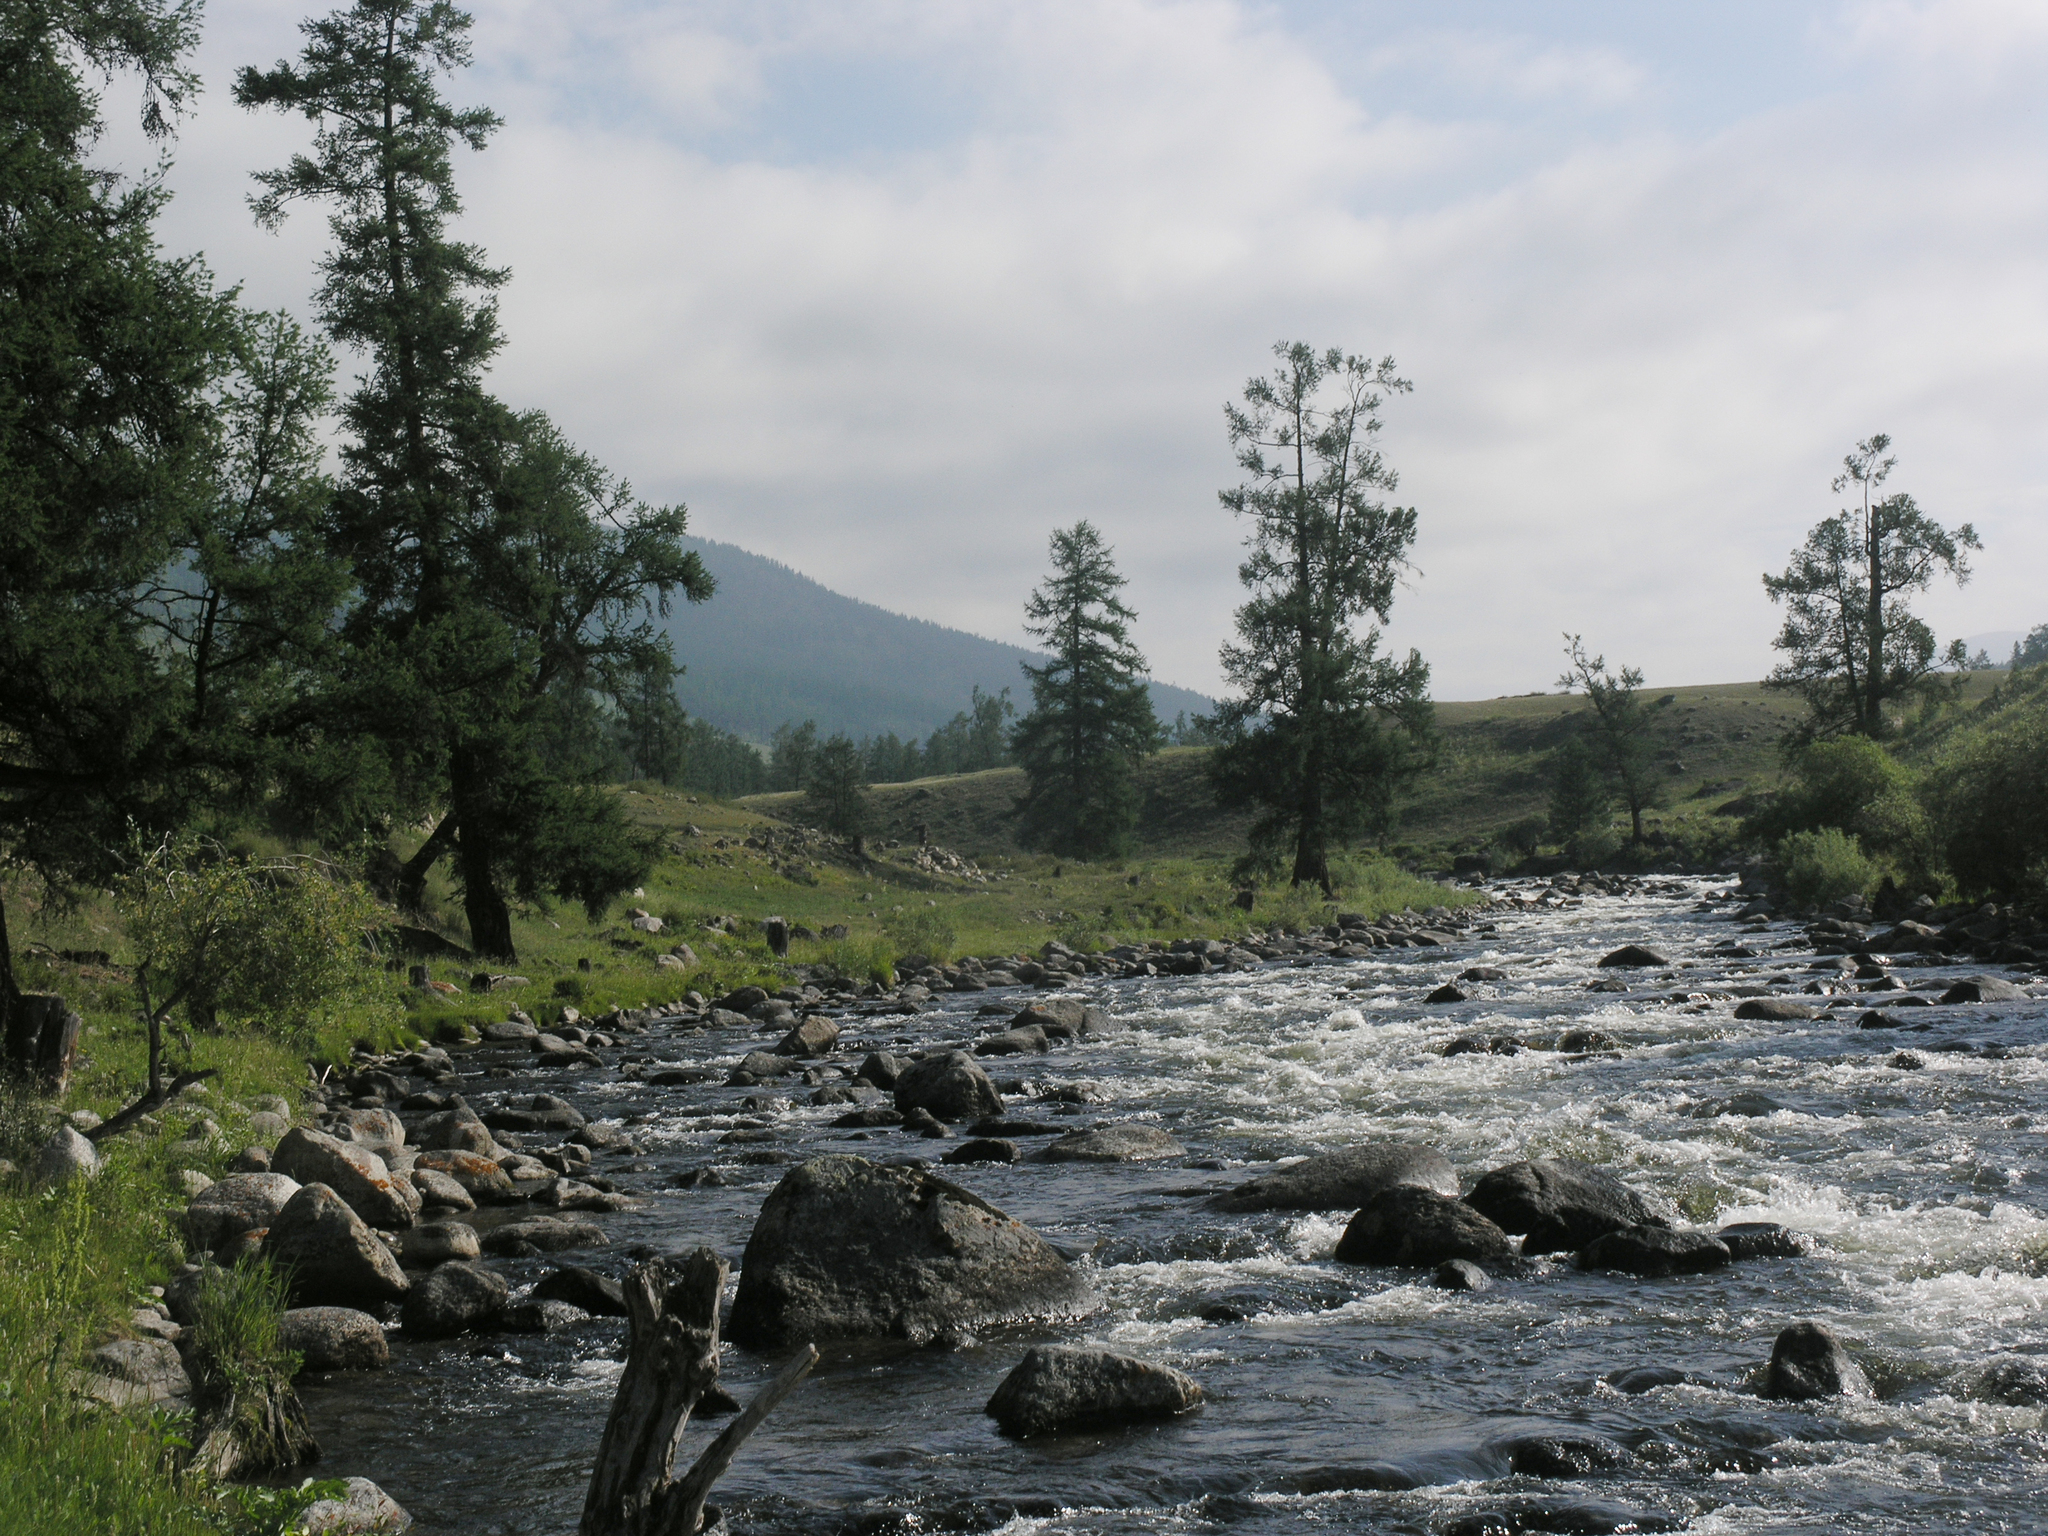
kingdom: Plantae
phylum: Tracheophyta
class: Pinopsida
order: Pinales
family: Pinaceae
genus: Larix
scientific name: Larix sibirica
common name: Siberian larch
